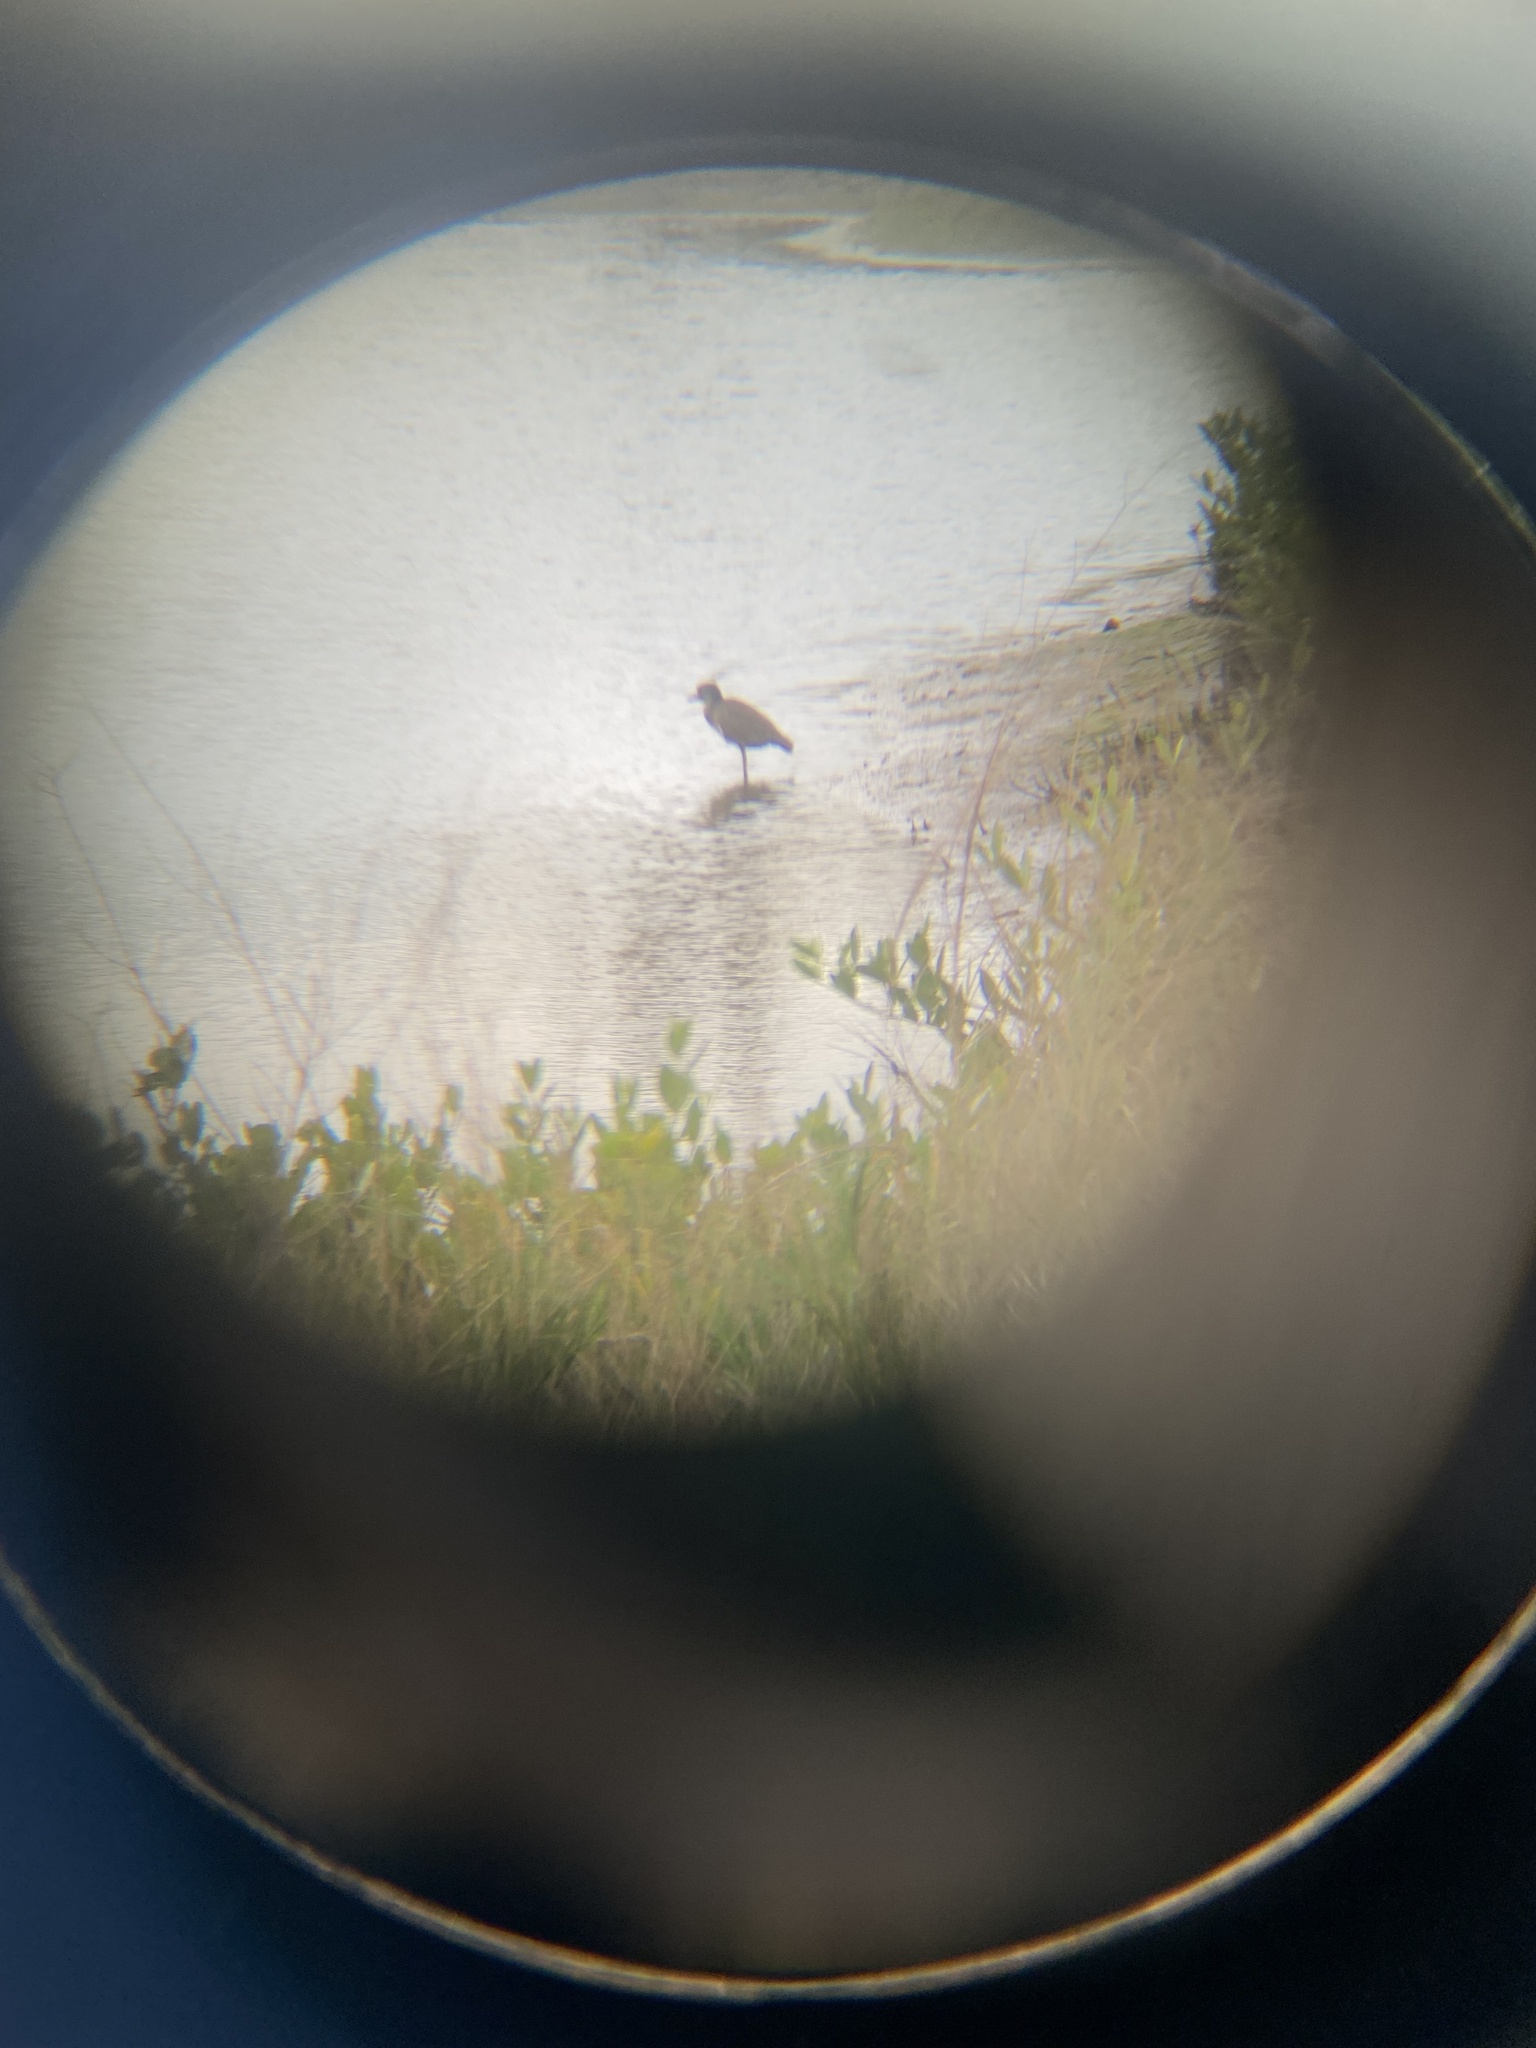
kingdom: Animalia
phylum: Chordata
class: Aves
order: Pelecaniformes
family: Ardeidae
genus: Nyctanassa
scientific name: Nyctanassa violacea
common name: Yellow-crowned night heron
